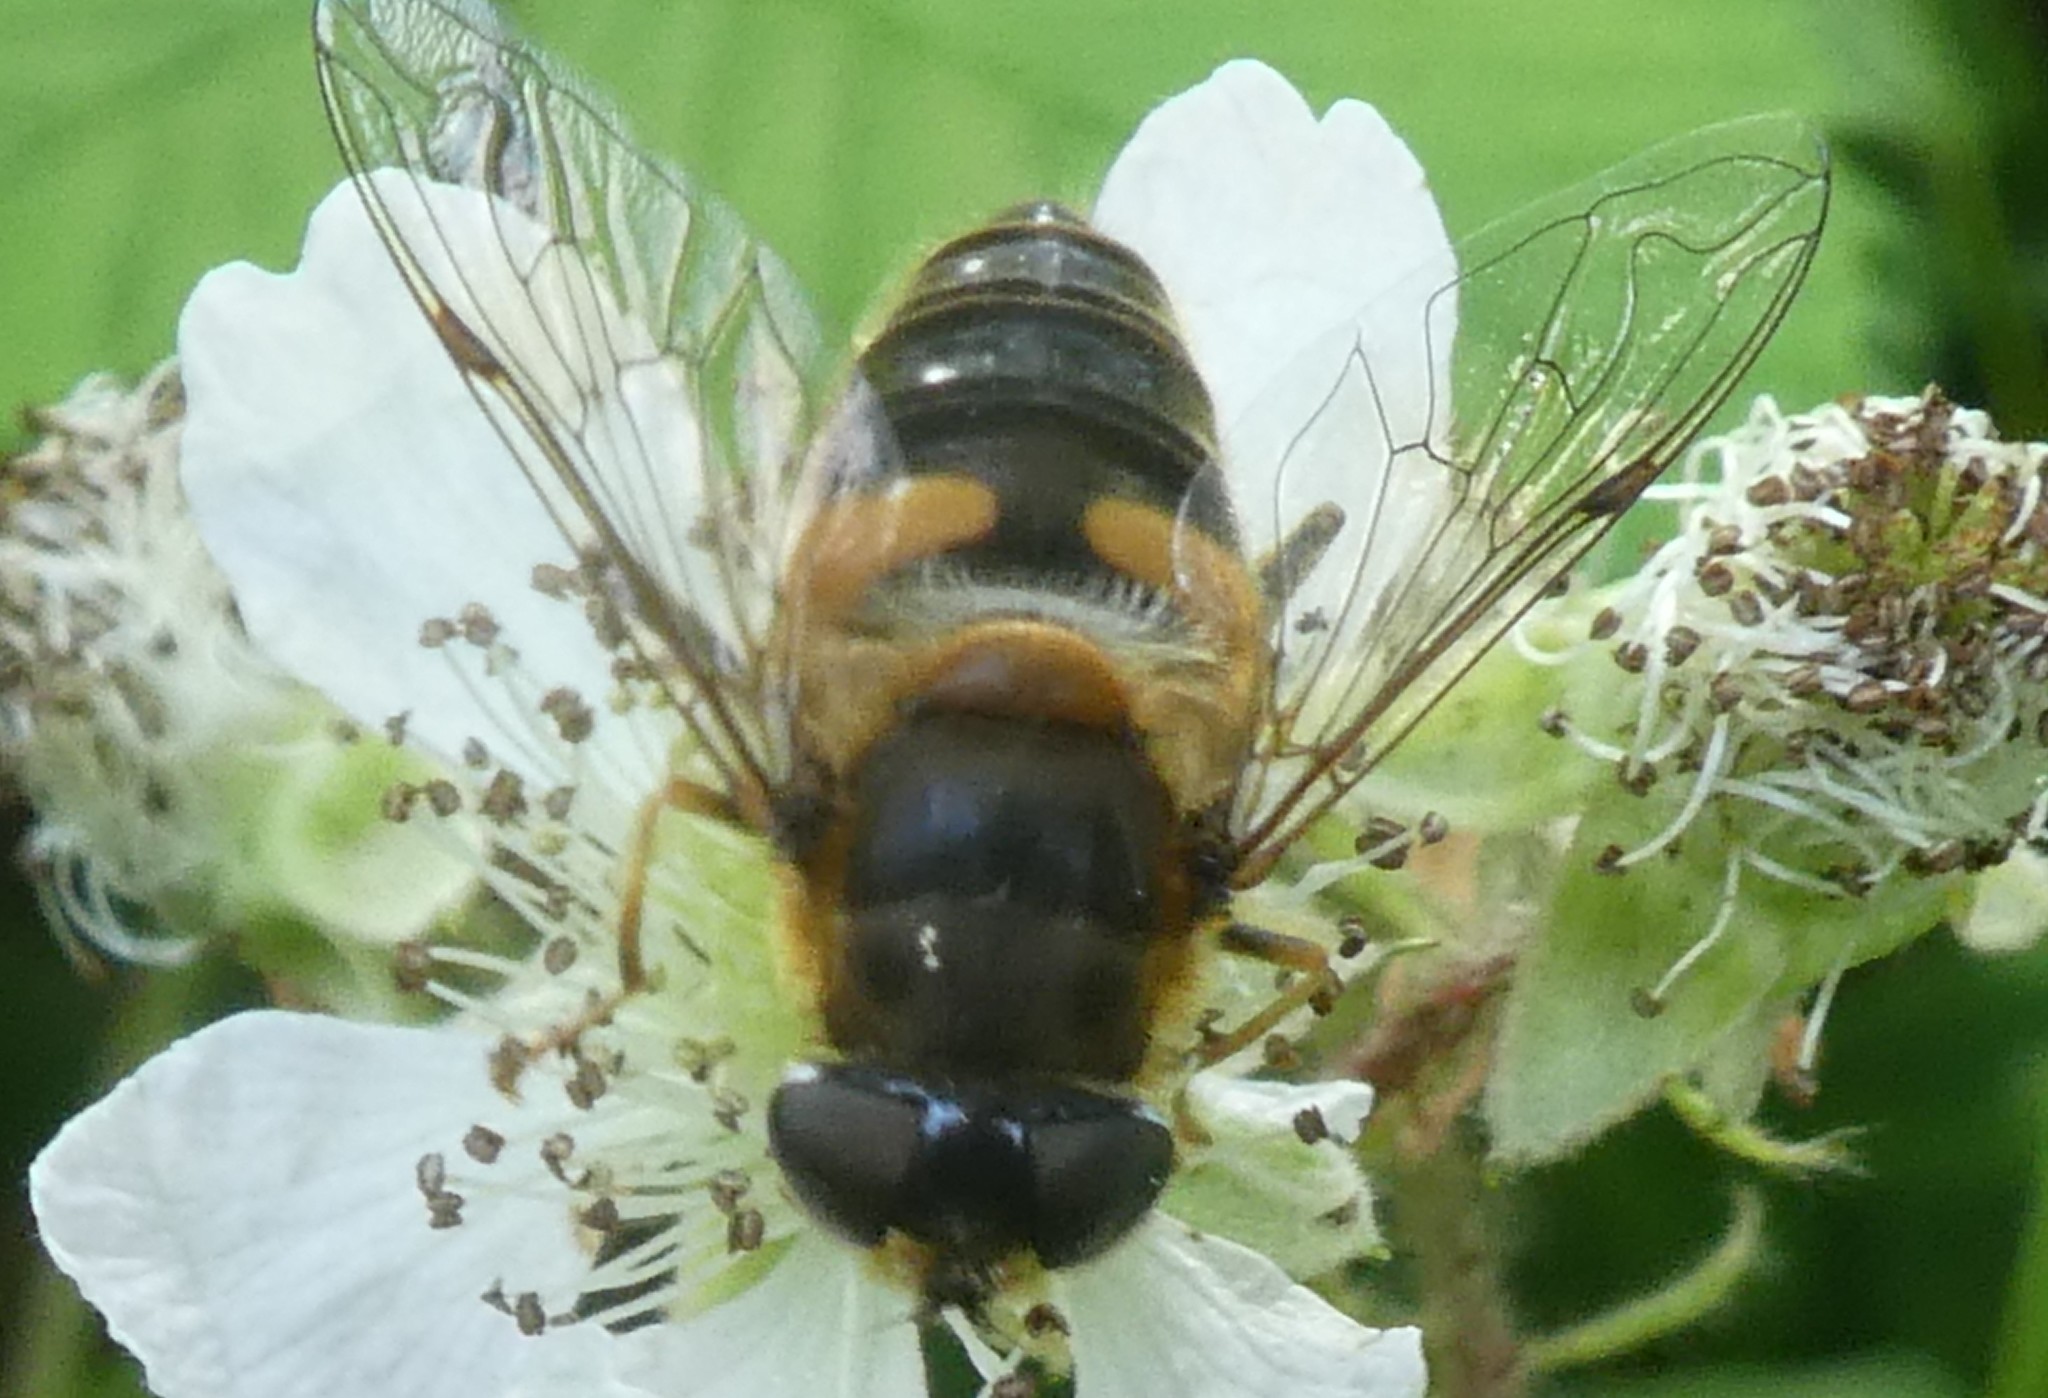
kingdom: Animalia
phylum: Arthropoda
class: Insecta
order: Diptera
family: Syrphidae
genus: Eristalis
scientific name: Eristalis pertinax
